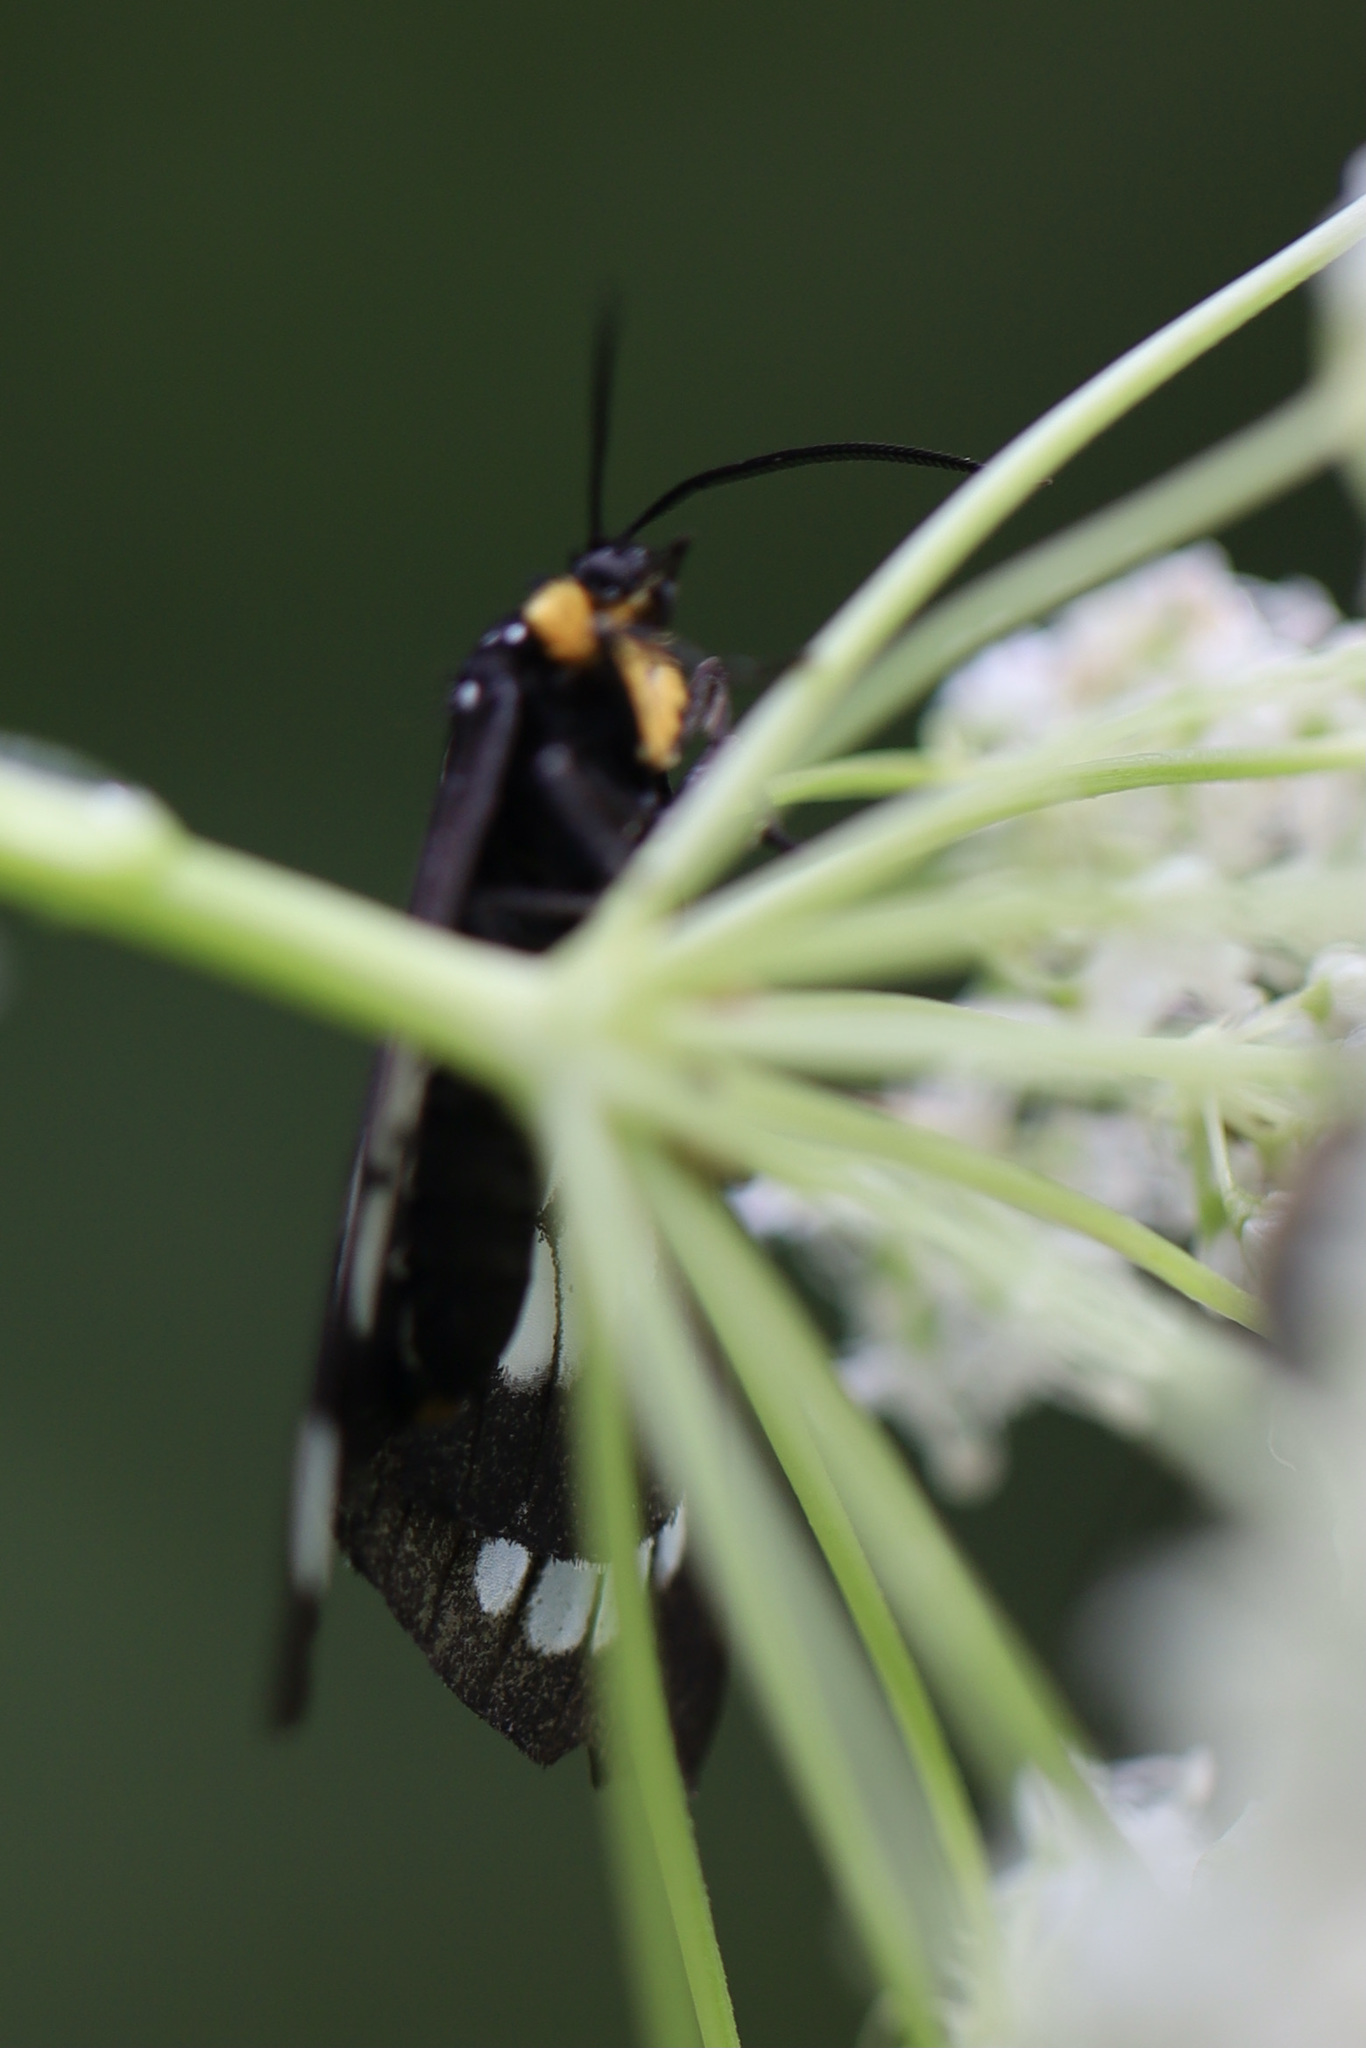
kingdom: Animalia
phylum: Arthropoda
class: Insecta
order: Lepidoptera
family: Erebidae
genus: Gnophaela
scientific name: Gnophaela vermiculata
